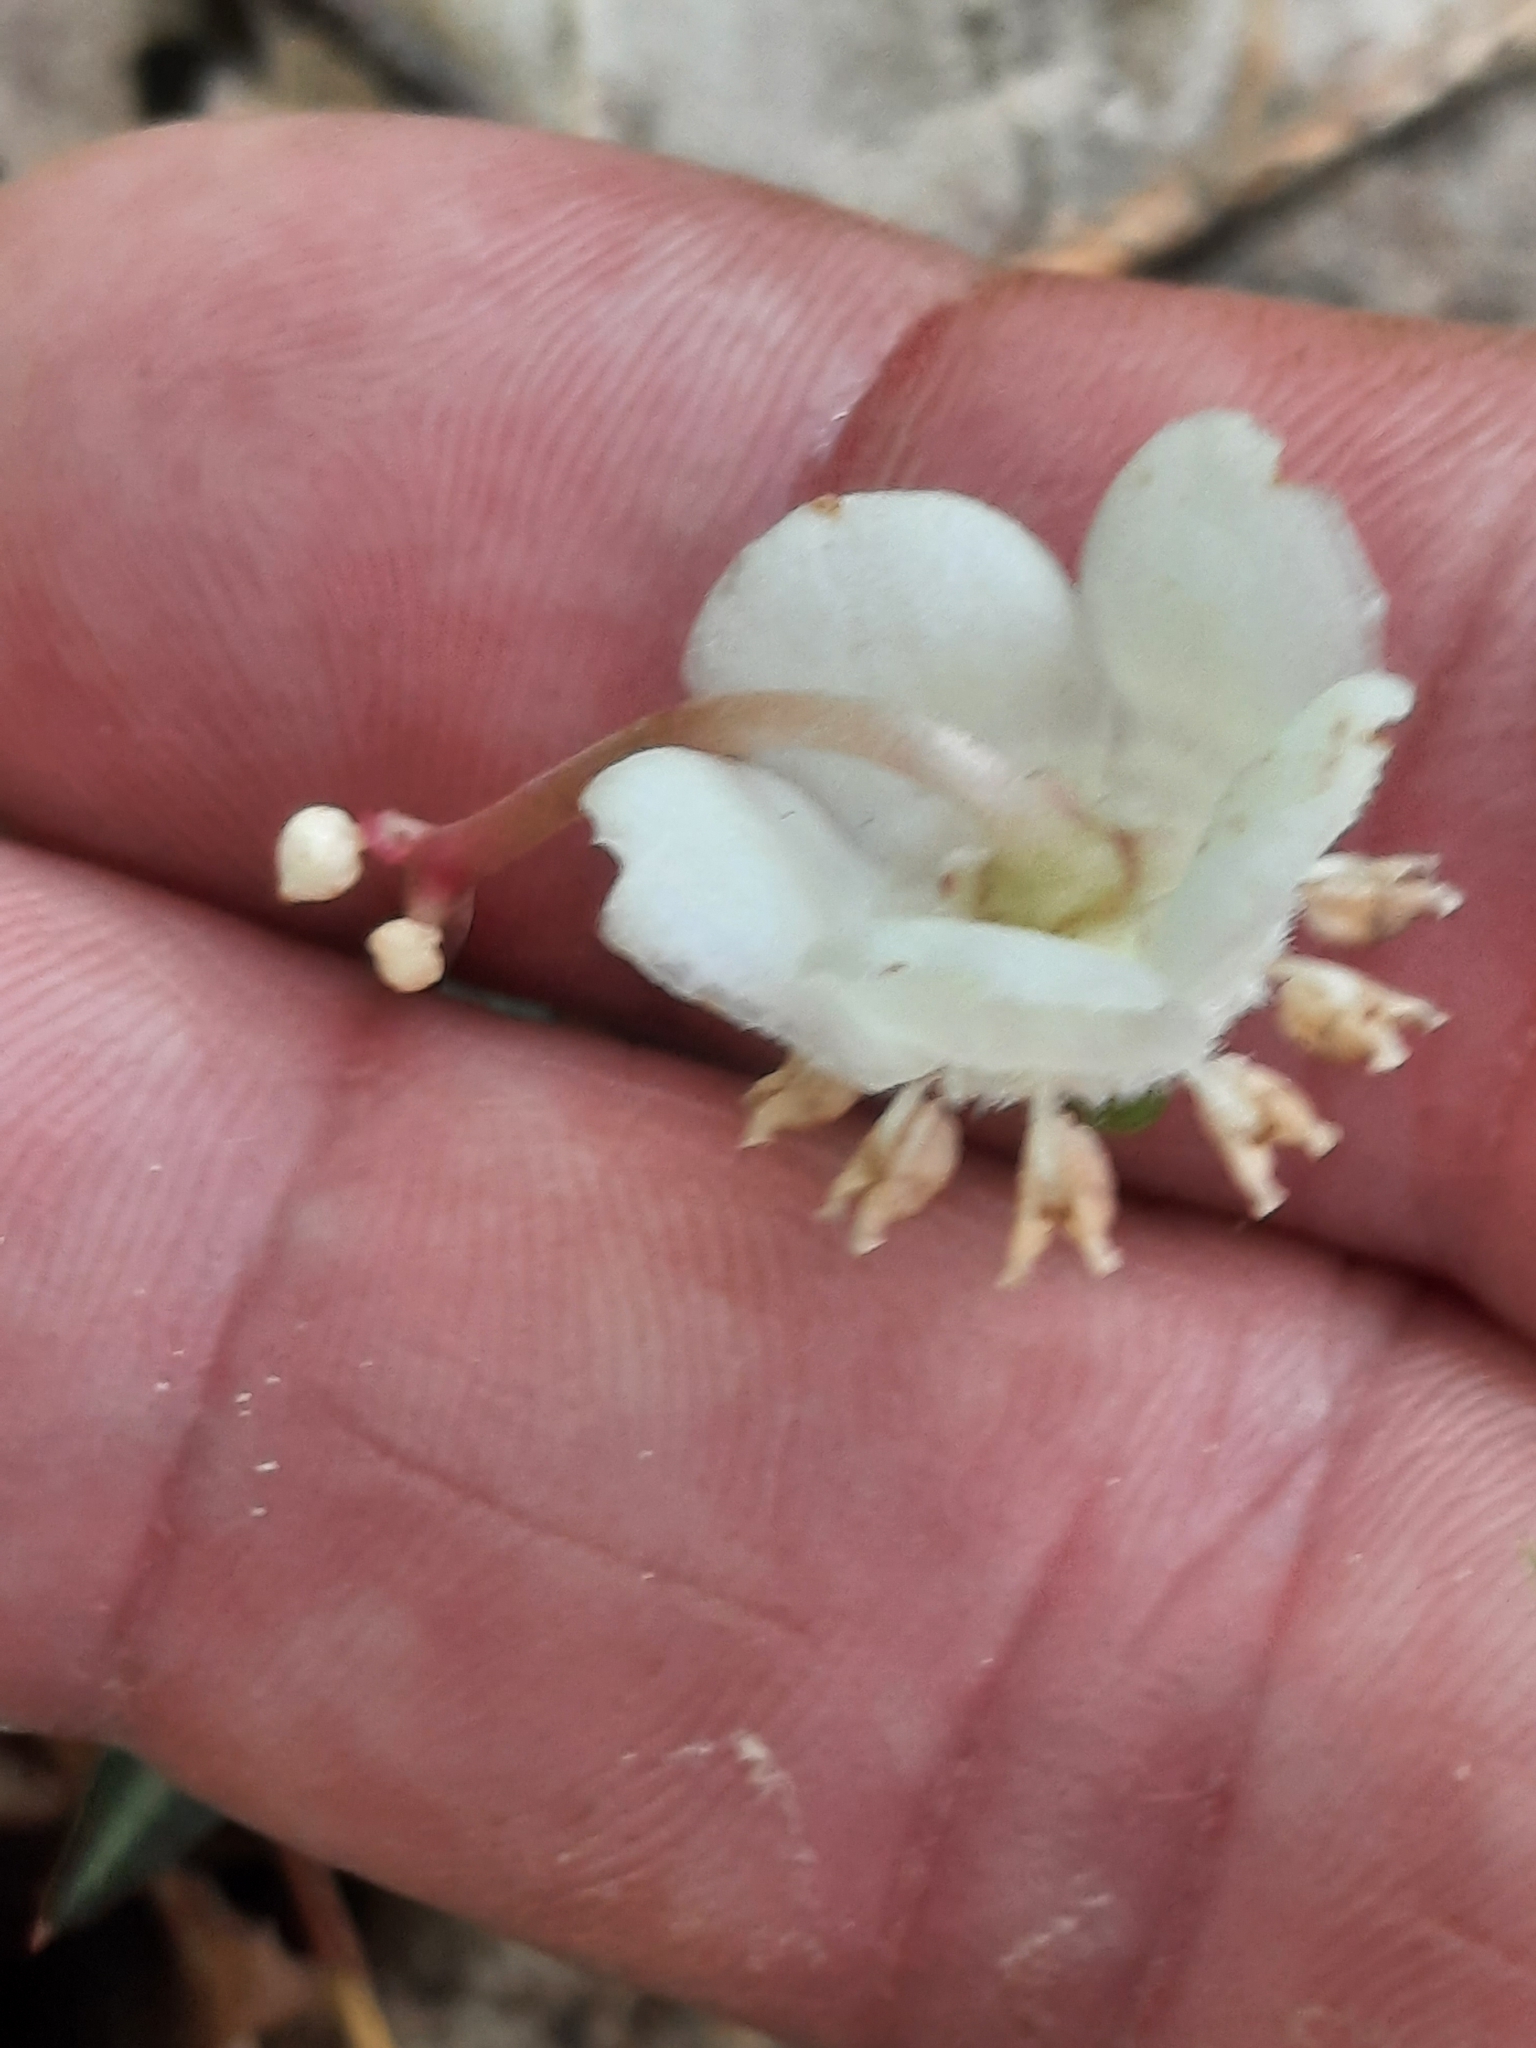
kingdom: Plantae
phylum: Tracheophyta
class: Magnoliopsida
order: Ericales
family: Ericaceae
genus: Chimaphila
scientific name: Chimaphila maculata
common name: Spotted pipsissewa
